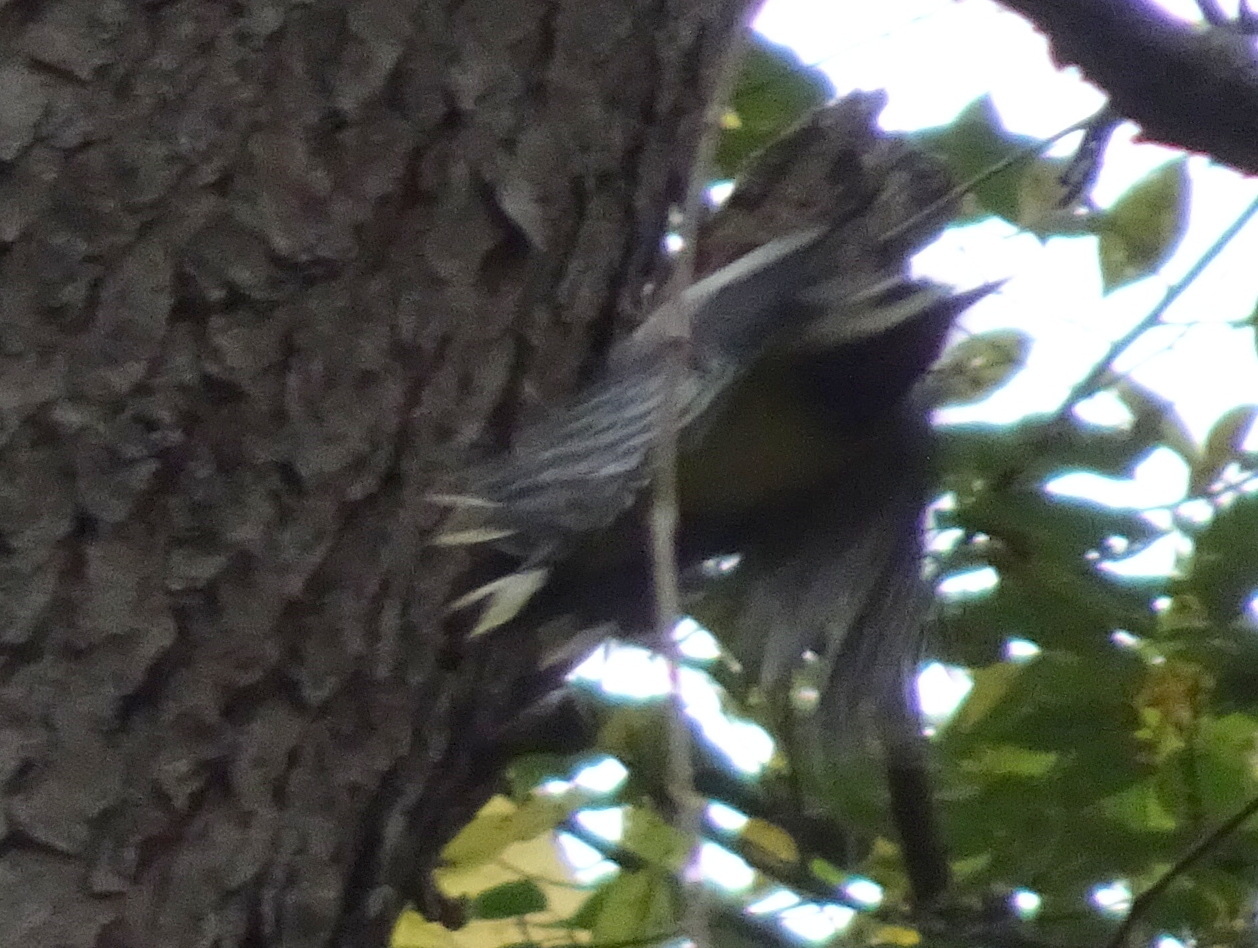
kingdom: Animalia
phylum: Chordata
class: Aves
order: Piciformes
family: Picidae
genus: Sphyrapicus
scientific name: Sphyrapicus varius
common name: Yellow-bellied sapsucker
